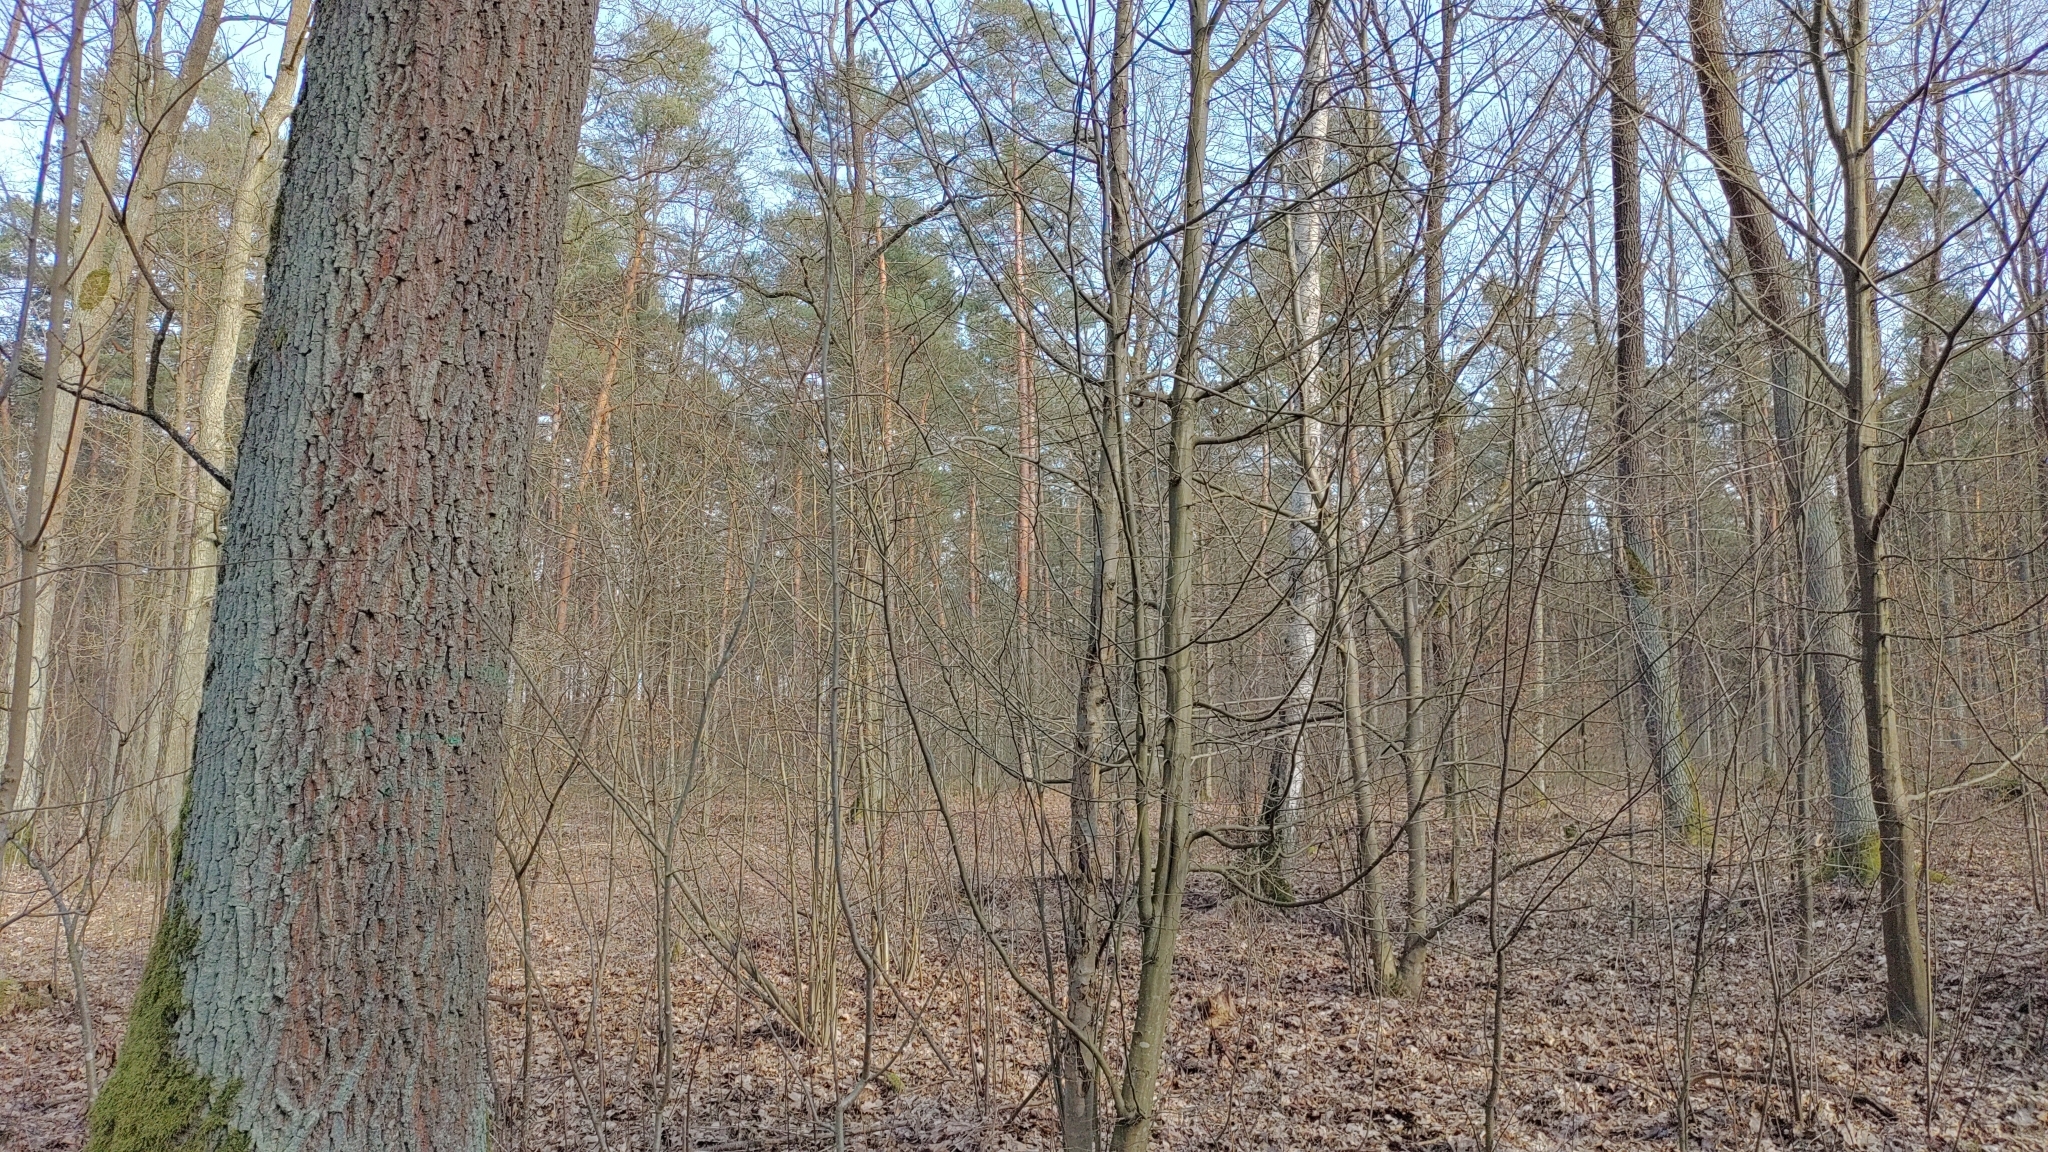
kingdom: Animalia
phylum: Chordata
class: Aves
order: Passeriformes
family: Certhiidae
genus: Certhia
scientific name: Certhia familiaris
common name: Eurasian treecreeper
